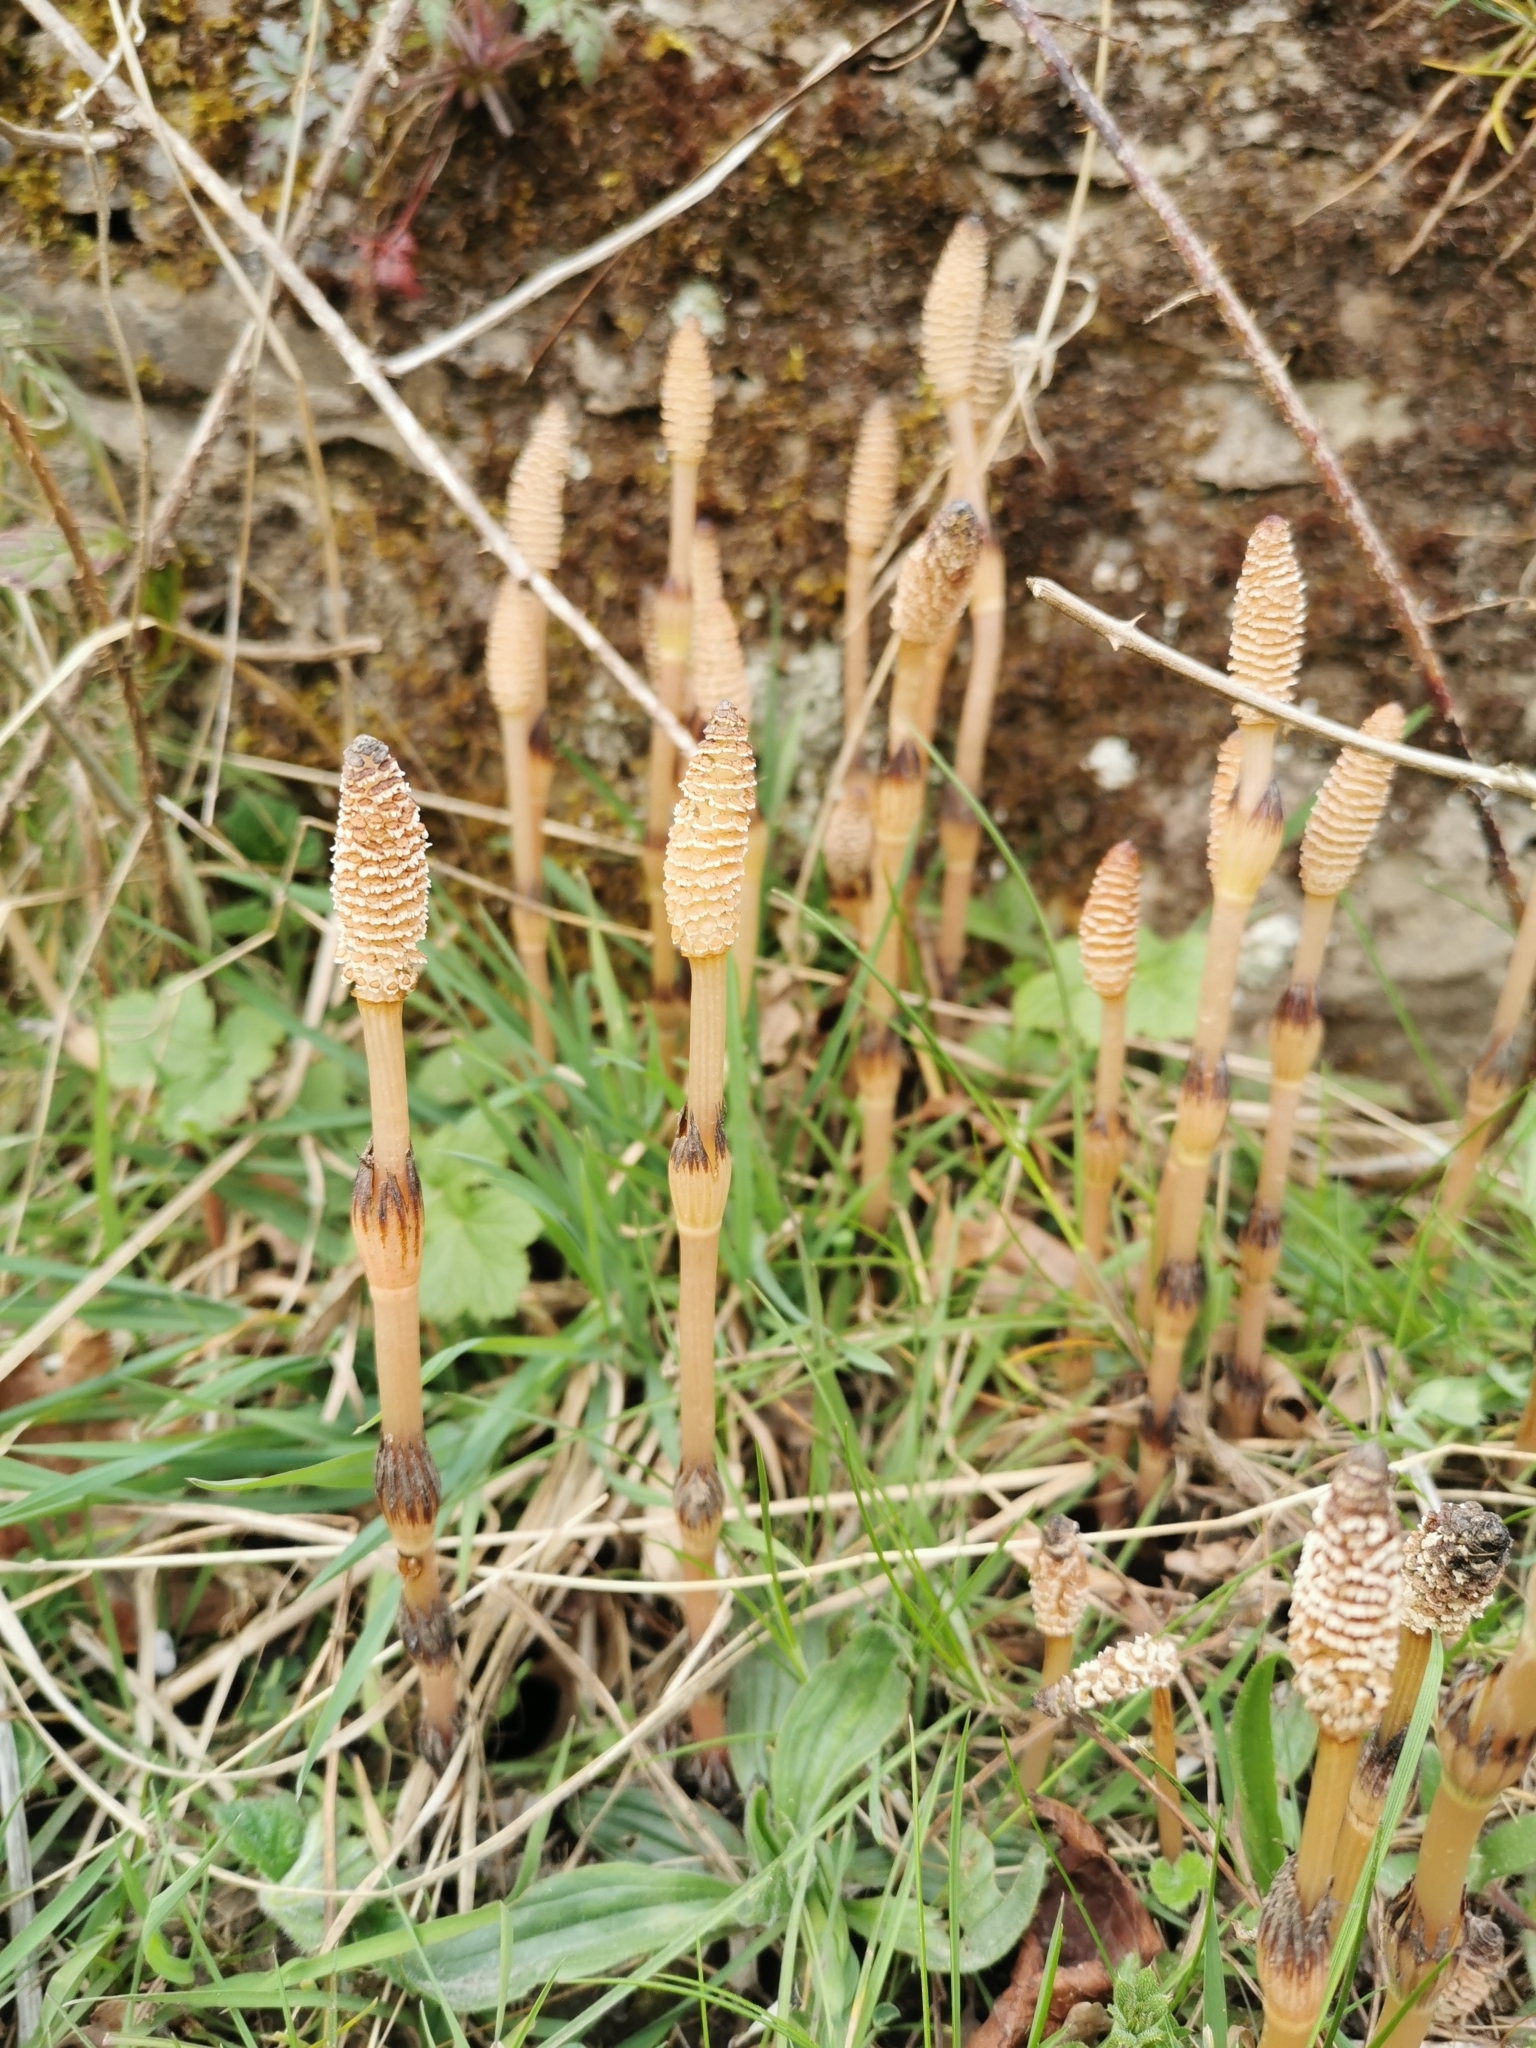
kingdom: Plantae
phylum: Tracheophyta
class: Polypodiopsida
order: Equisetales
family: Equisetaceae
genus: Equisetum
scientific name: Equisetum arvense
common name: Field horsetail
